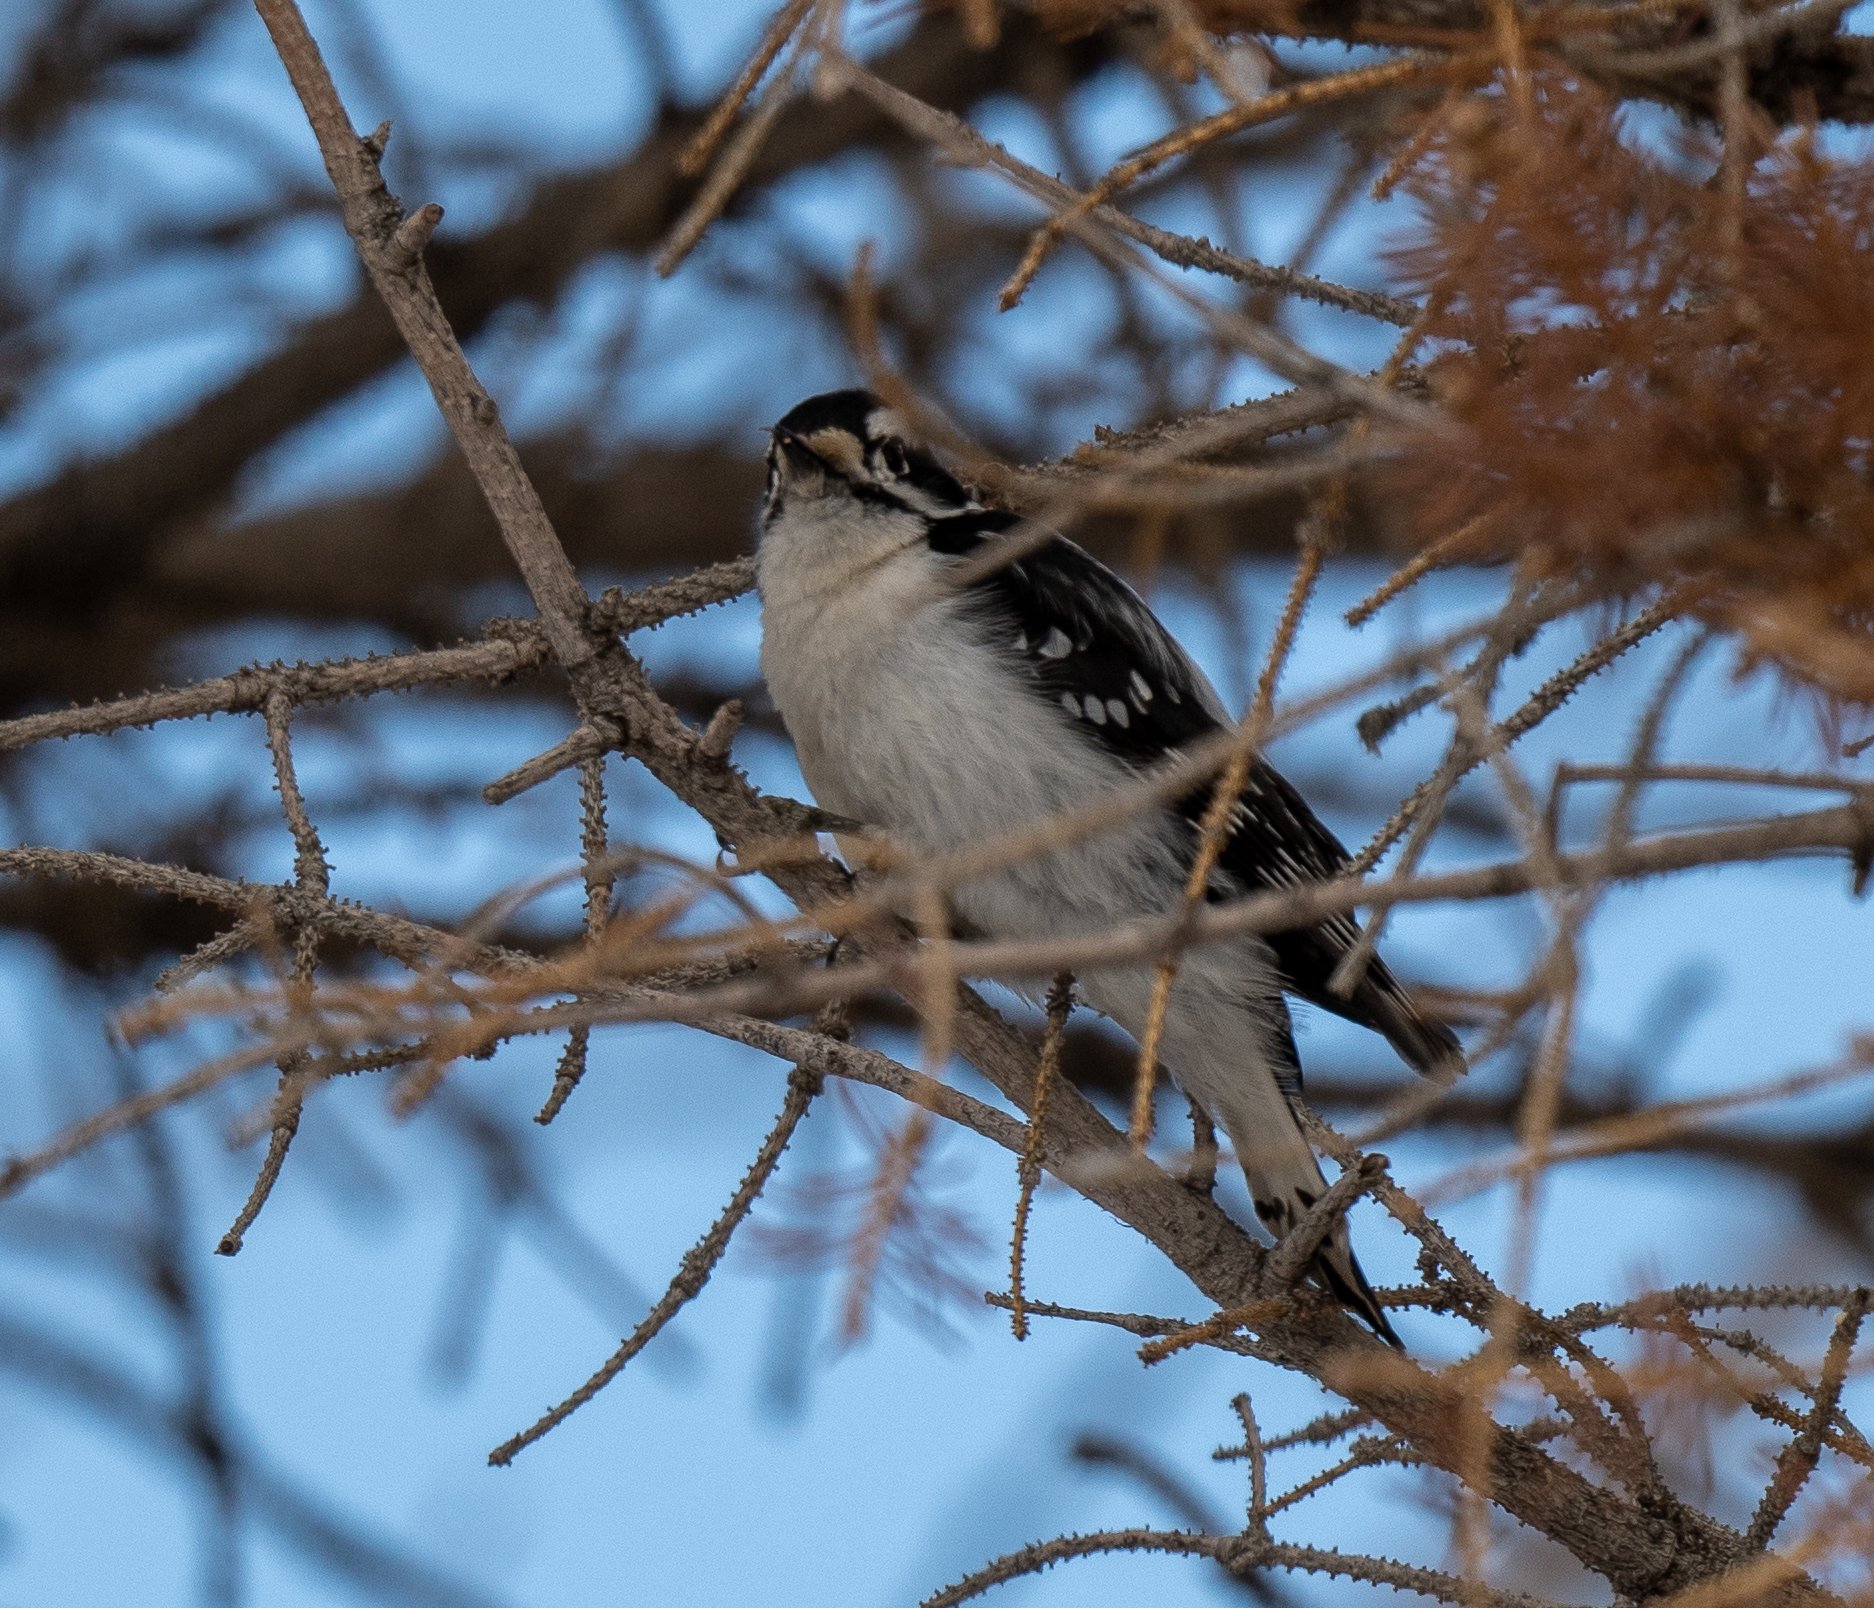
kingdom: Animalia
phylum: Chordata
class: Aves
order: Piciformes
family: Picidae
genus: Dryobates
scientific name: Dryobates pubescens
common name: Downy woodpecker
